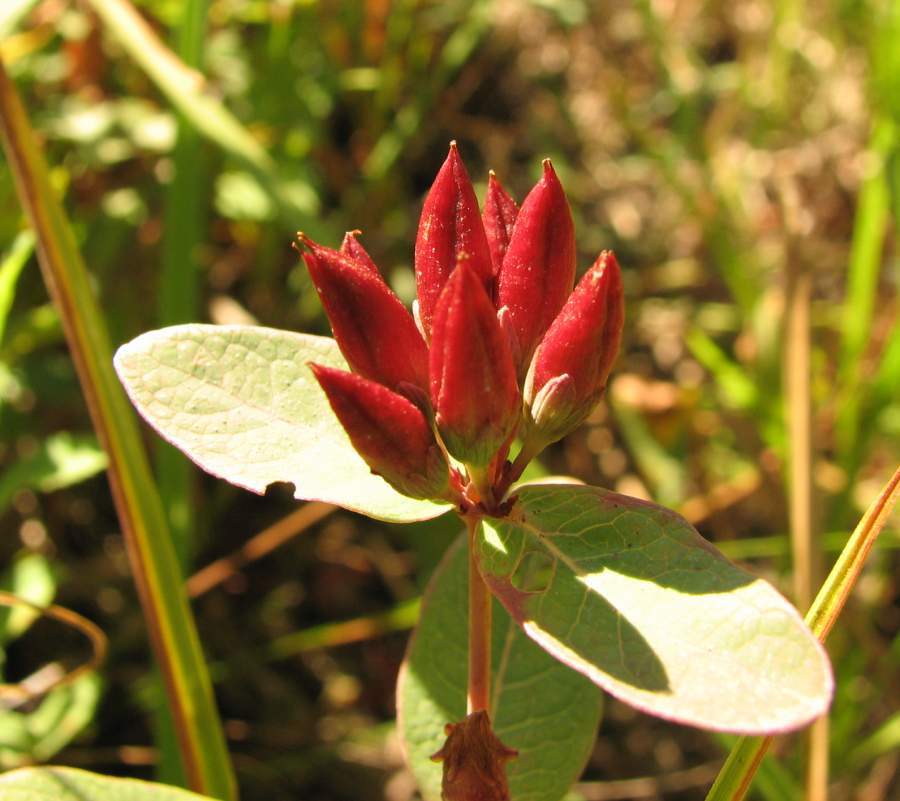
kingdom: Plantae
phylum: Tracheophyta
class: Magnoliopsida
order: Malpighiales
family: Hypericaceae
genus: Triadenum
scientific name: Triadenum fraseri
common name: Fraser's marsh st. johnswort
